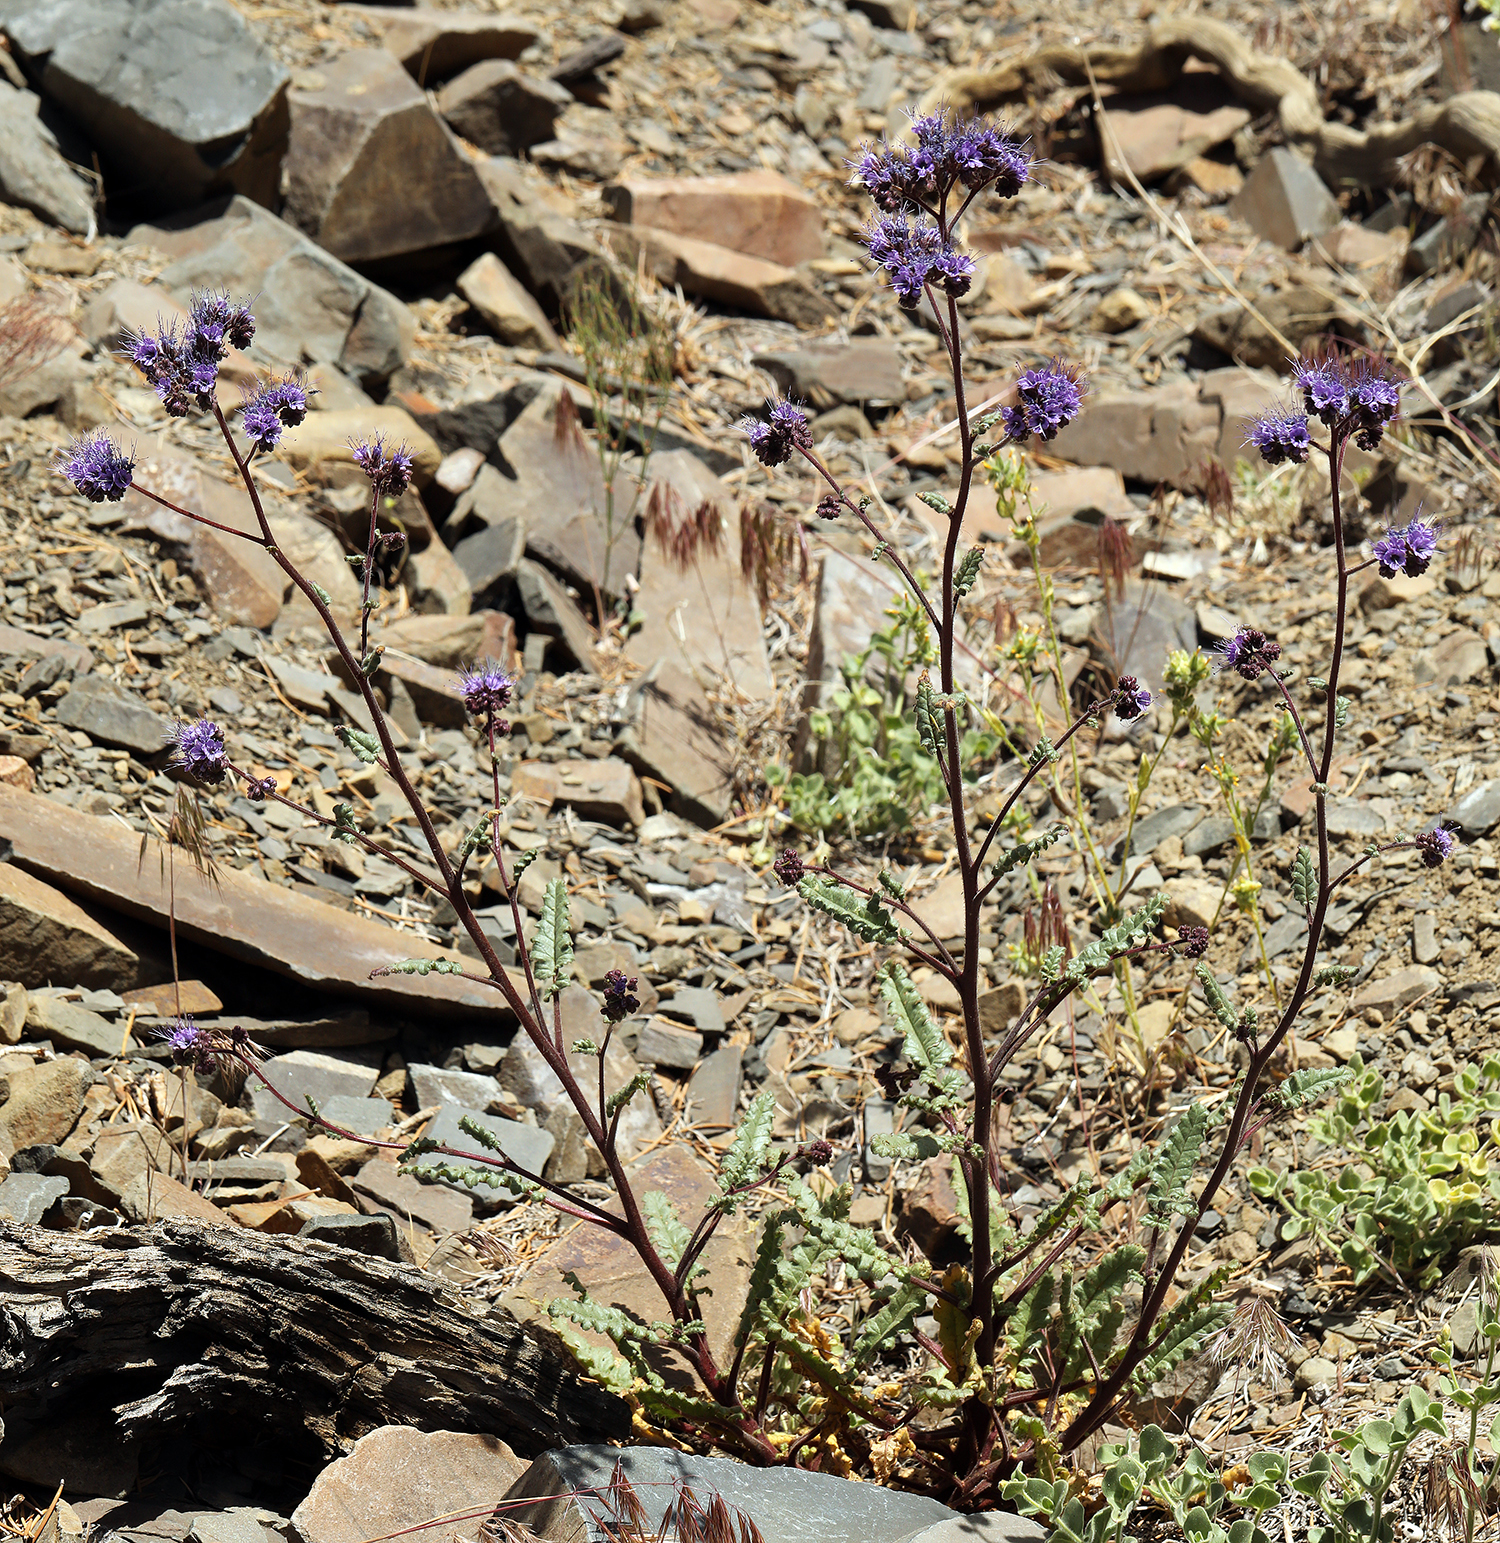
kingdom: Plantae
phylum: Tracheophyta
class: Magnoliopsida
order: Boraginales
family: Hydrophyllaceae
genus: Phacelia
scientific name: Phacelia crenulata
